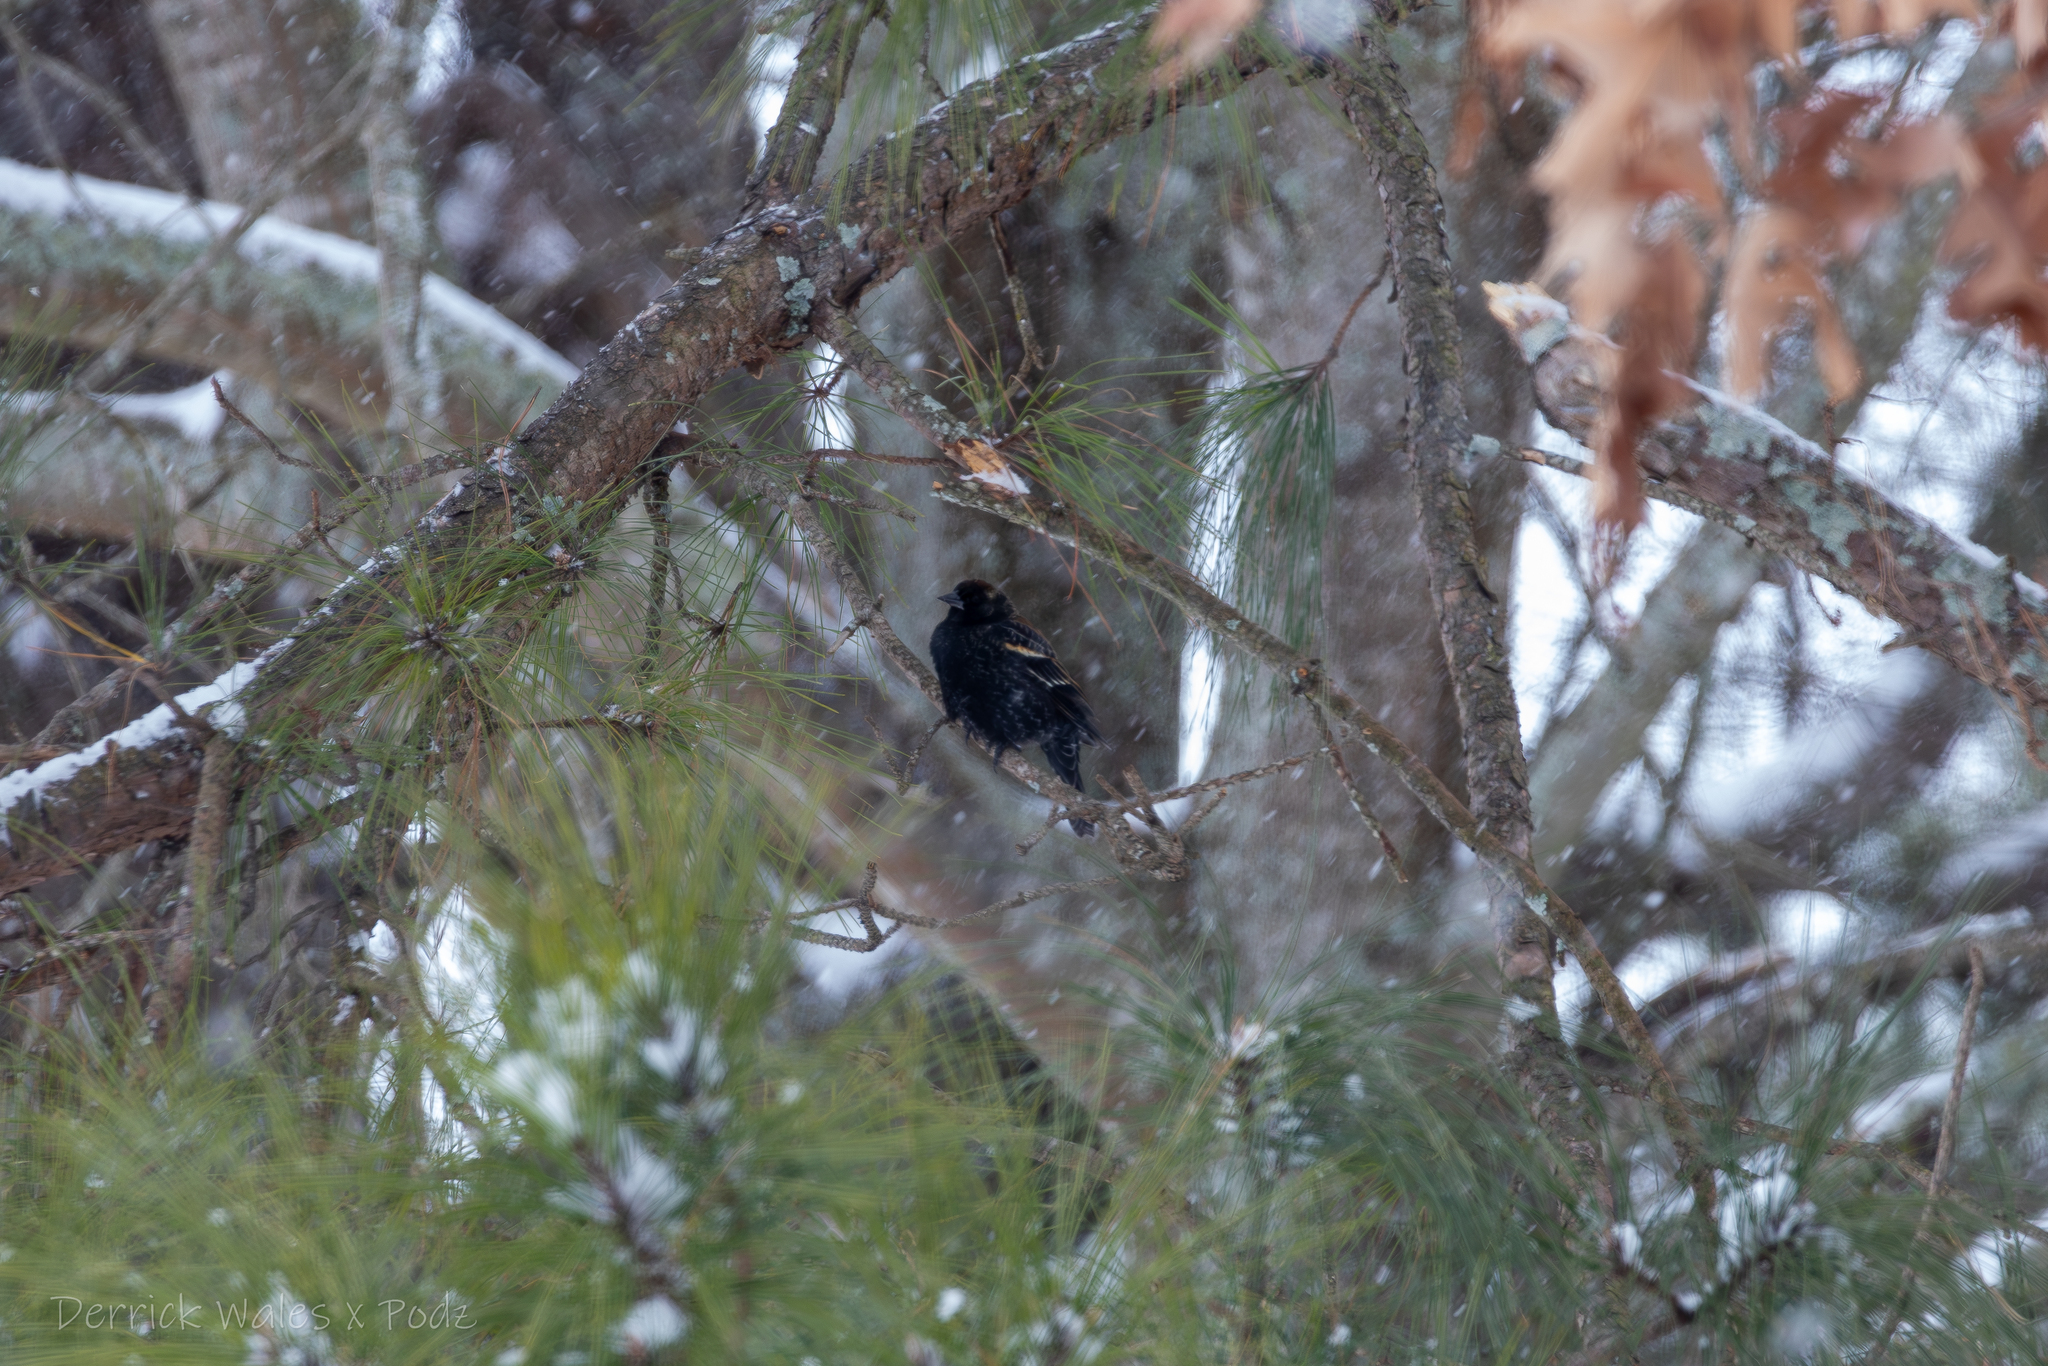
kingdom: Animalia
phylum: Chordata
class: Aves
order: Passeriformes
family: Icteridae
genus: Agelaius
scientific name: Agelaius phoeniceus
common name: Red-winged blackbird
